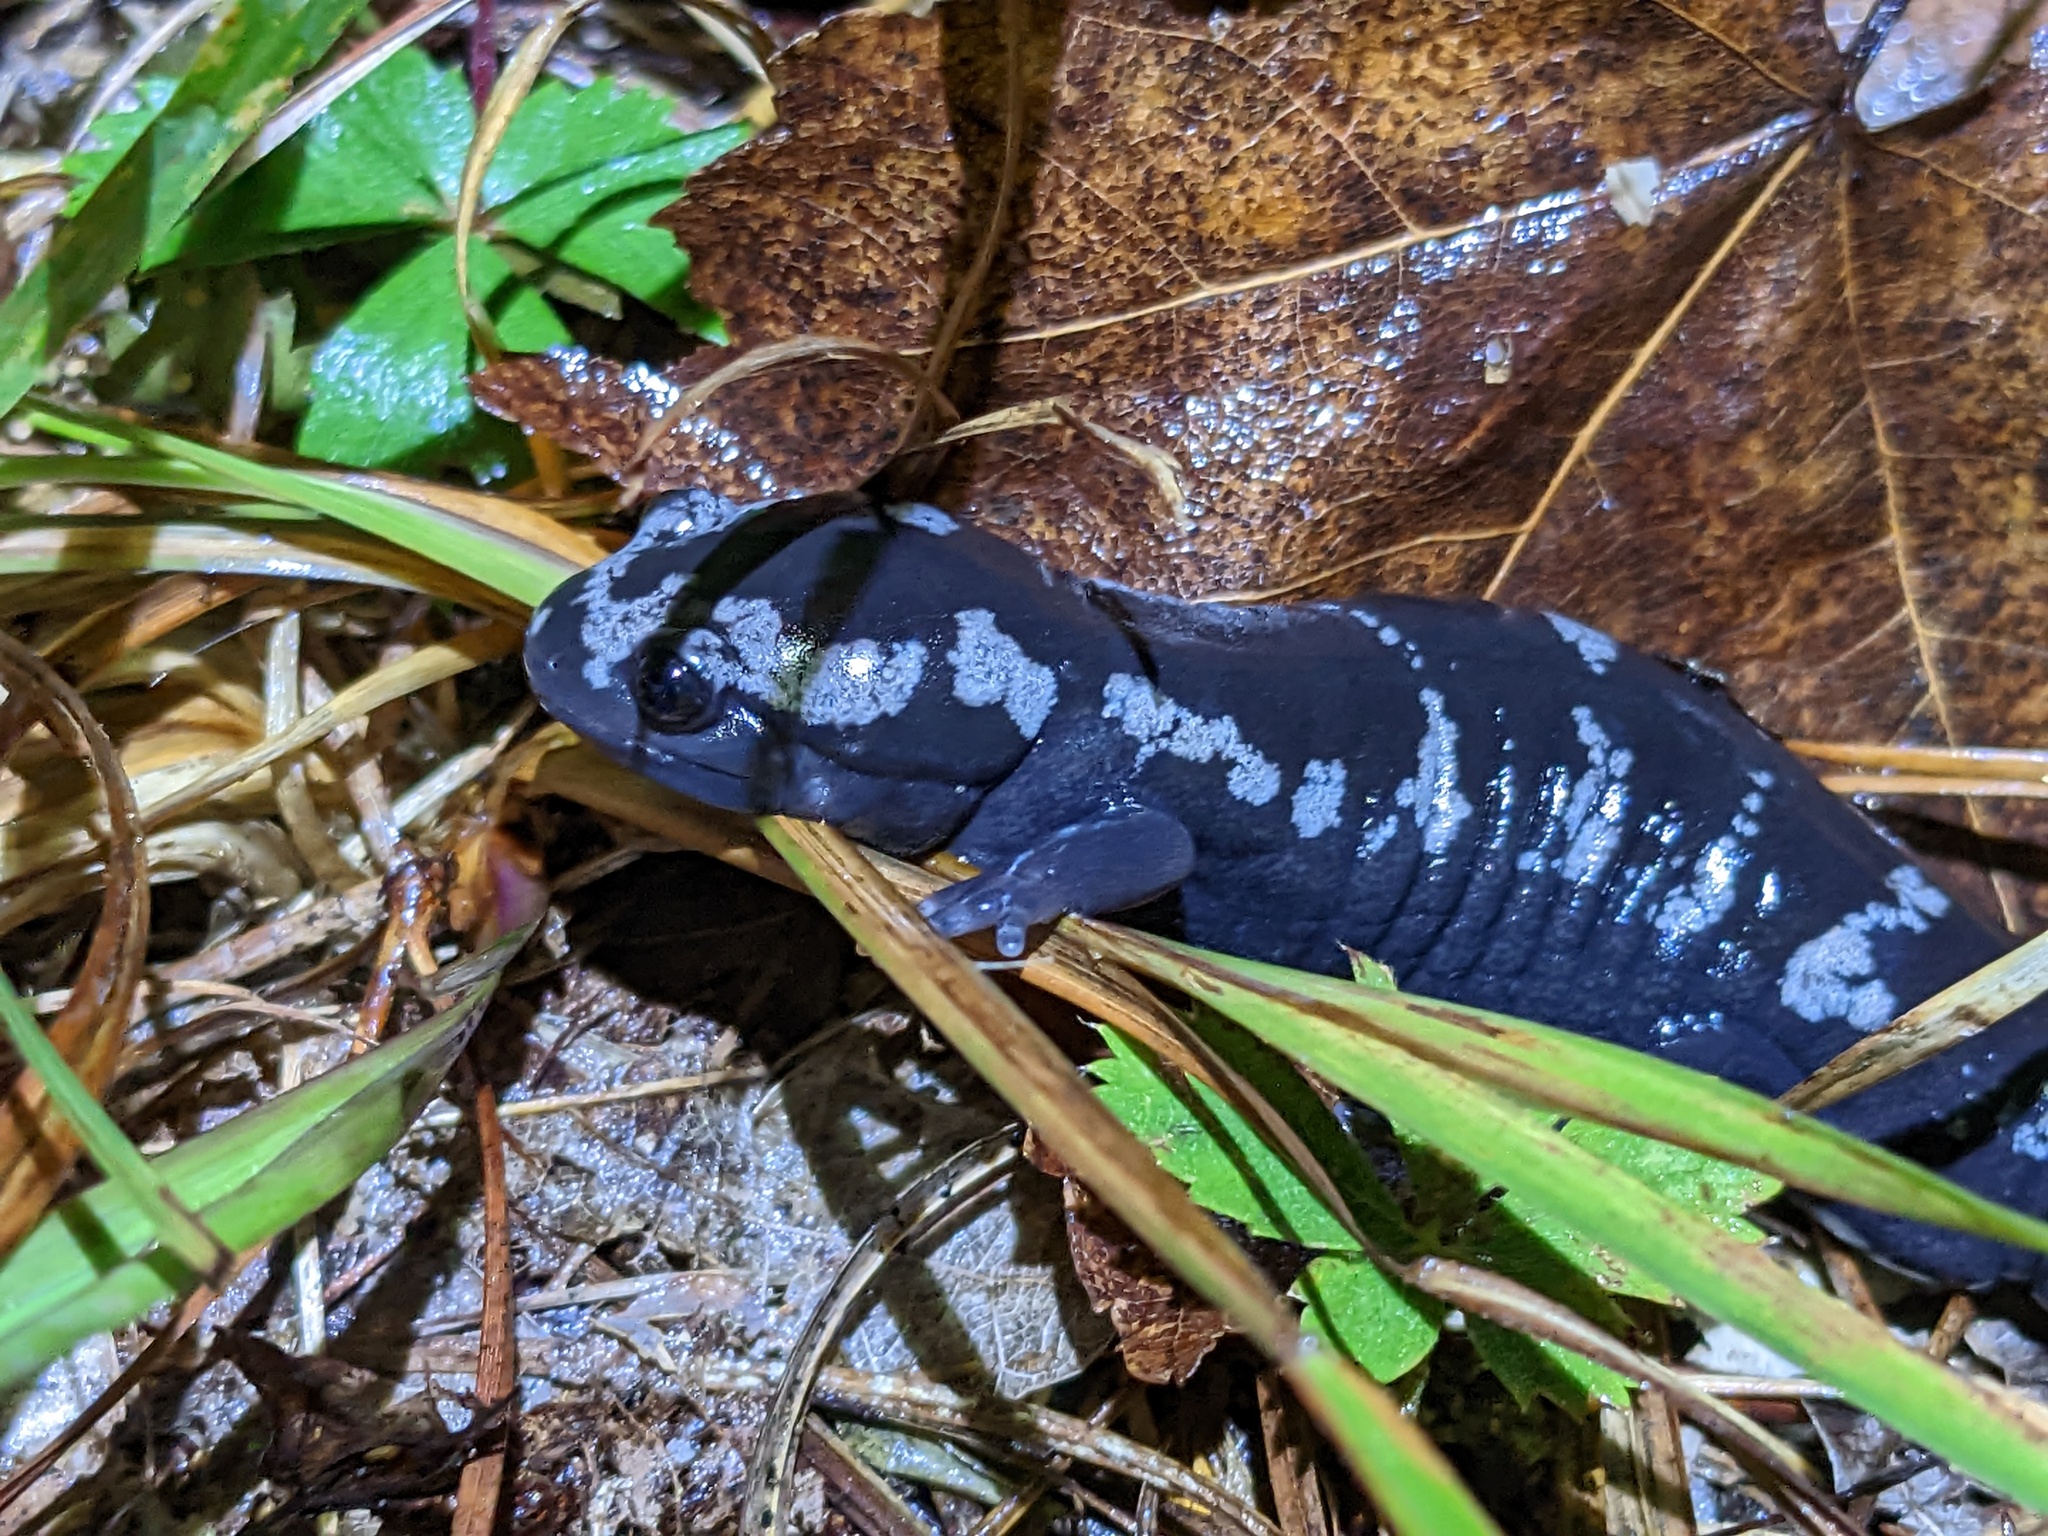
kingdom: Animalia
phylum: Chordata
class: Amphibia
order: Caudata
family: Ambystomatidae
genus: Ambystoma
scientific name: Ambystoma opacum
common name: Marbled salamander
